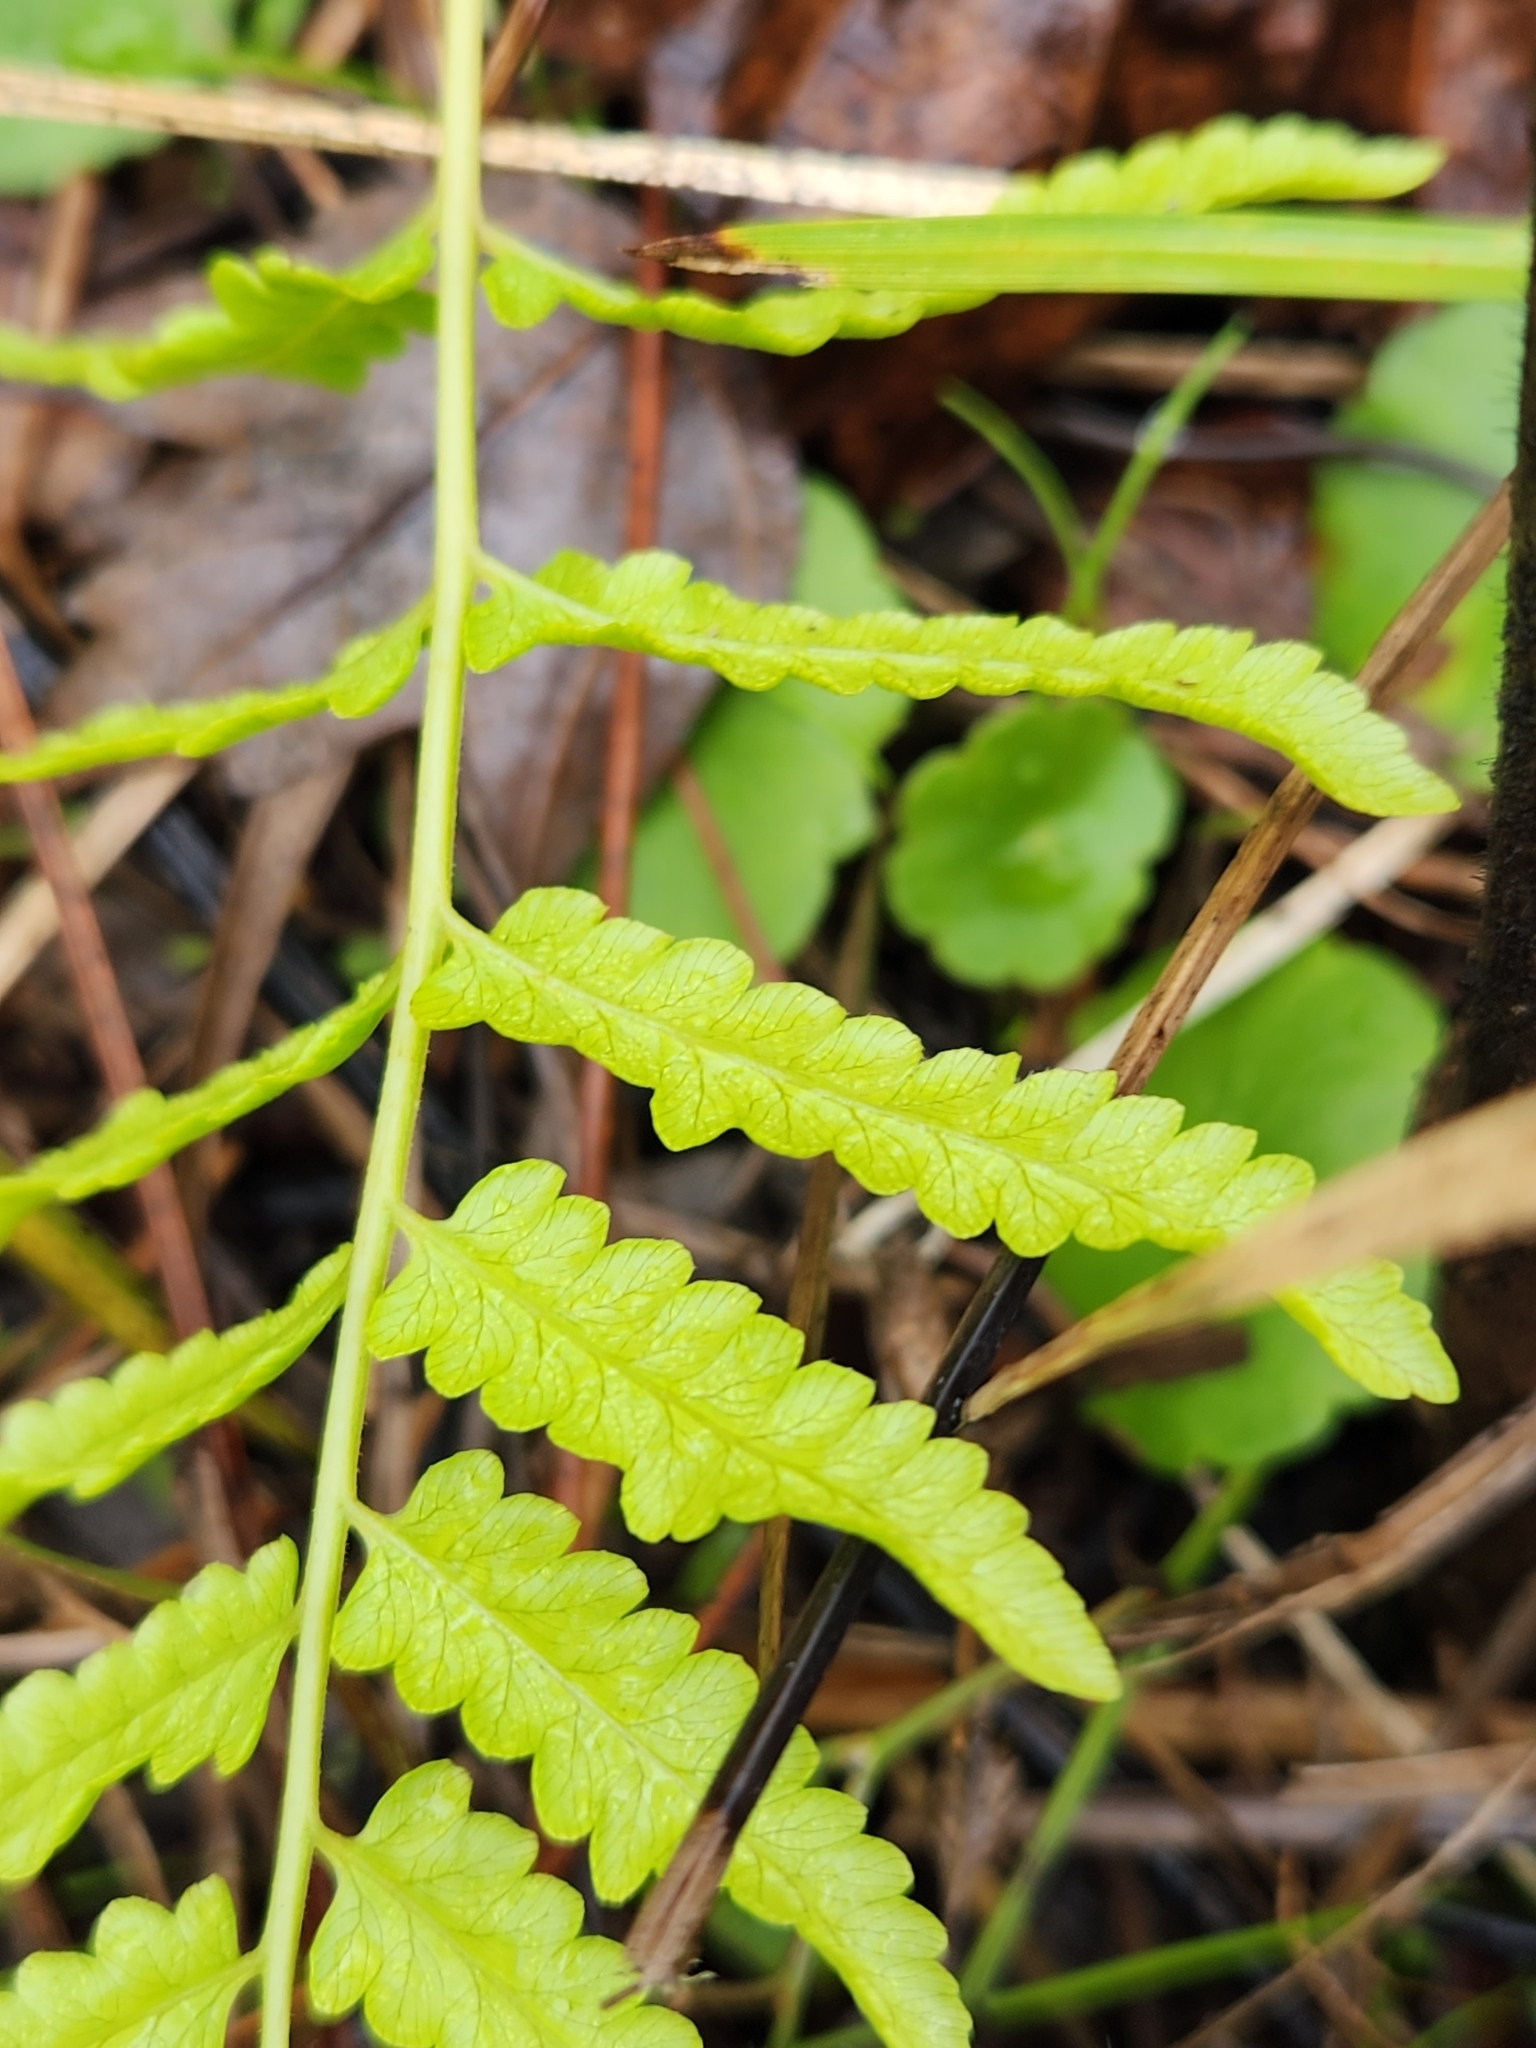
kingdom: Plantae
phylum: Tracheophyta
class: Polypodiopsida
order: Polypodiales
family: Thelypteridaceae
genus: Cyclosorus
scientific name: Cyclosorus interruptus
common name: Neke fern
